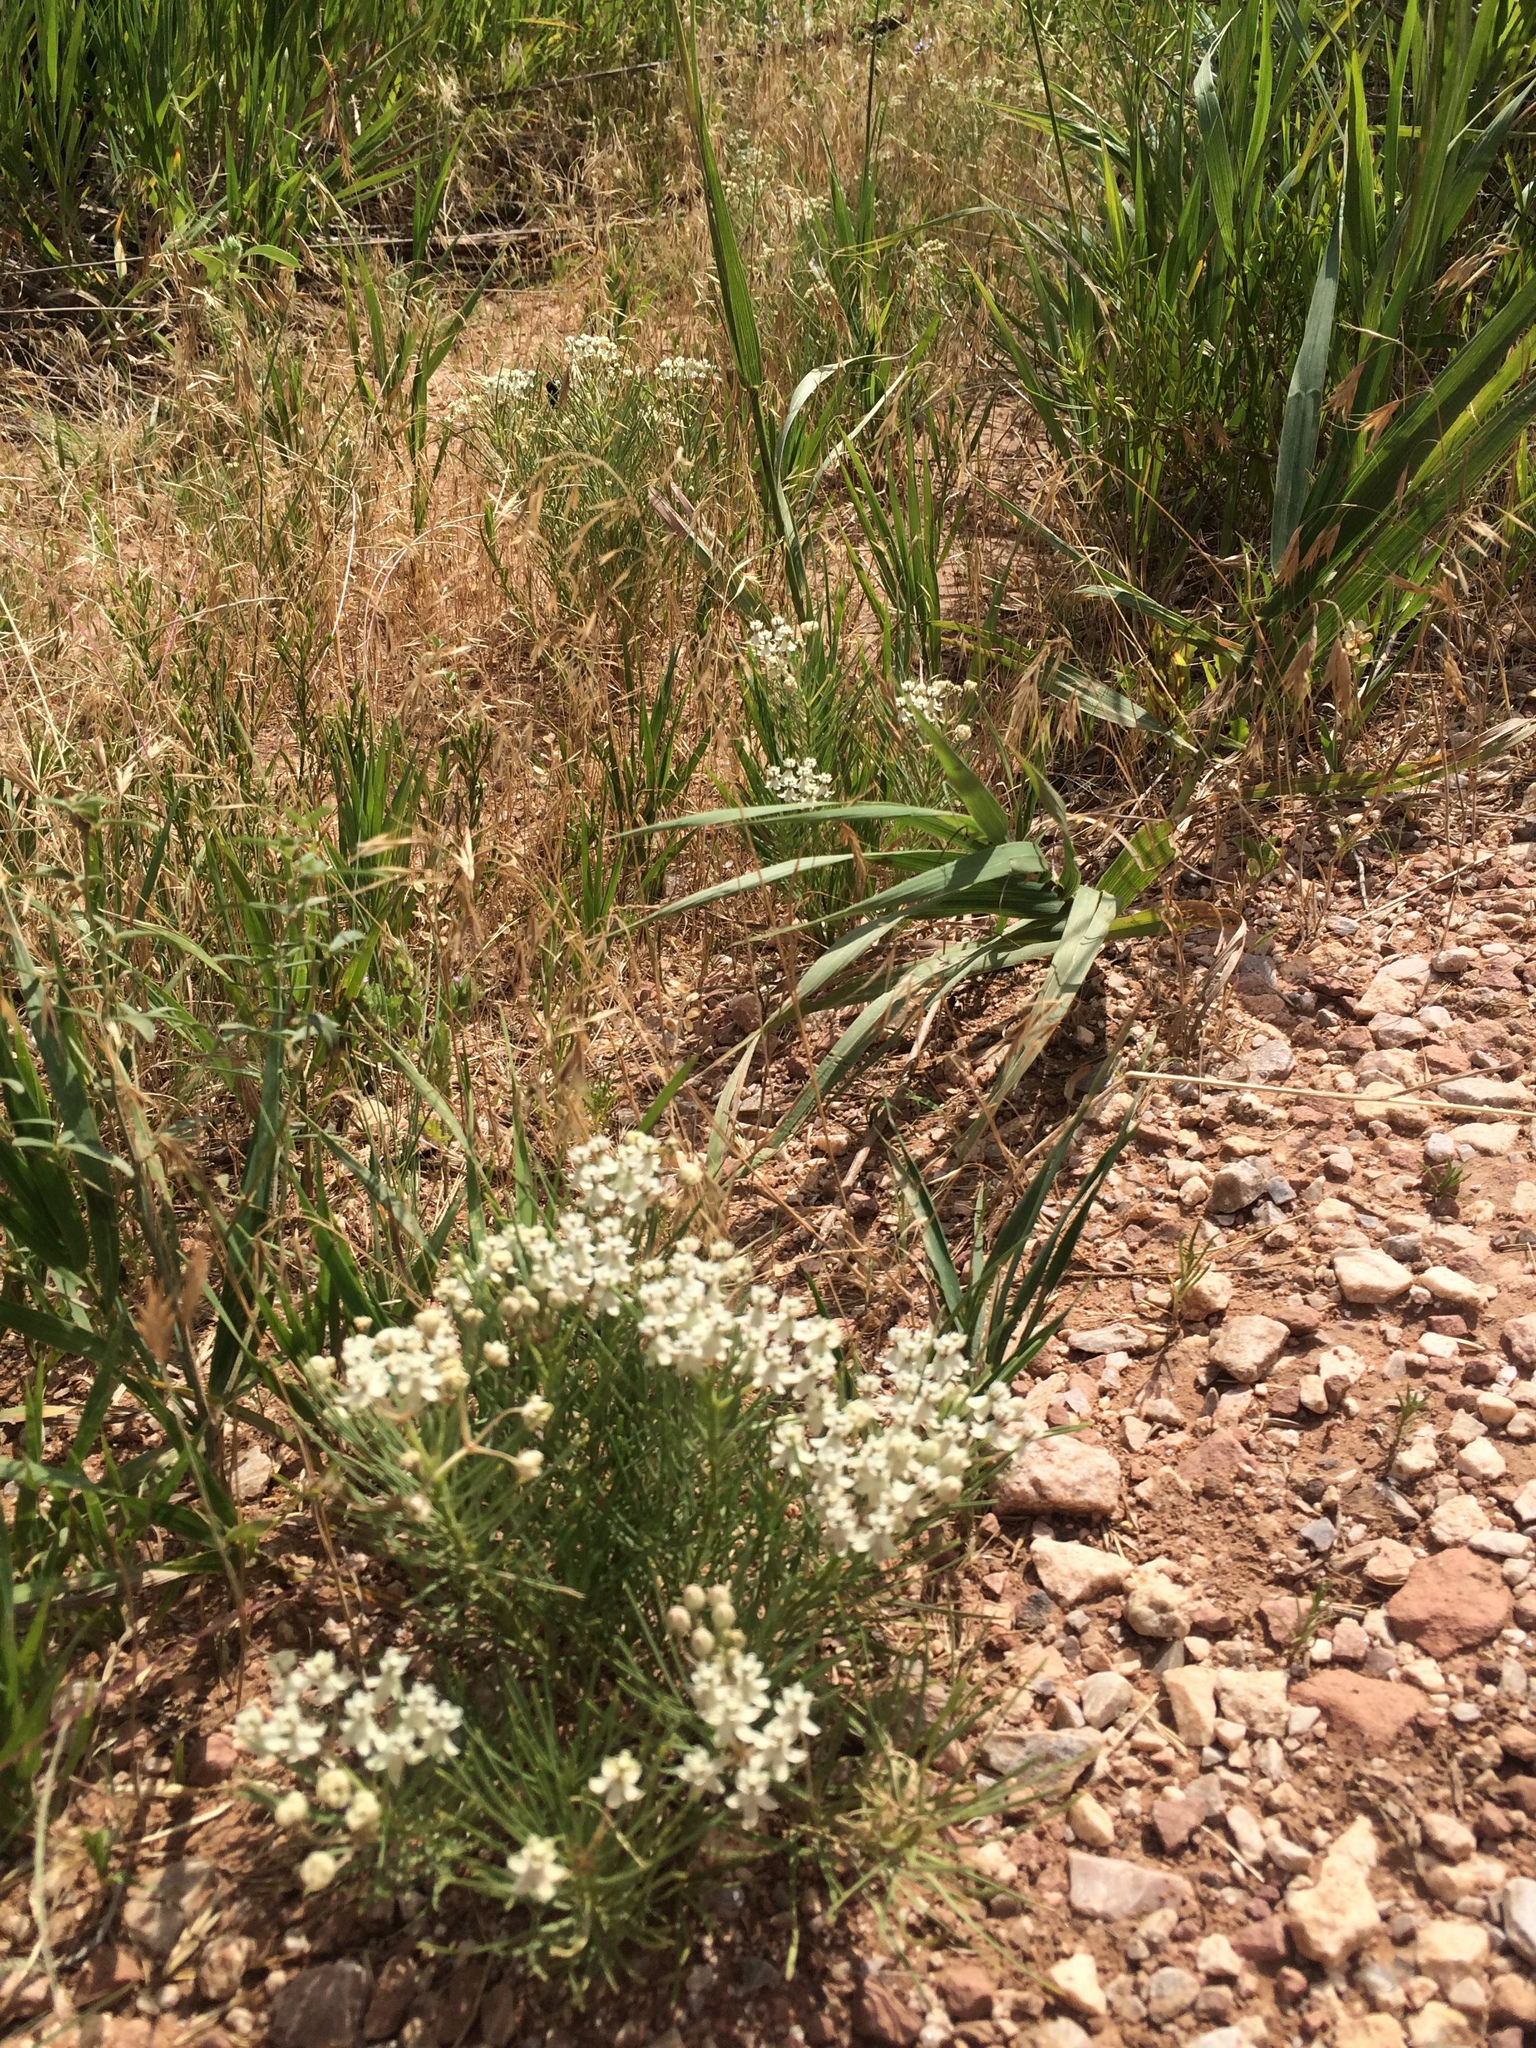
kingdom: Plantae
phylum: Tracheophyta
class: Magnoliopsida
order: Gentianales
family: Apocynaceae
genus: Asclepias
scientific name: Asclepias pumila
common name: Dwarf milkweed
